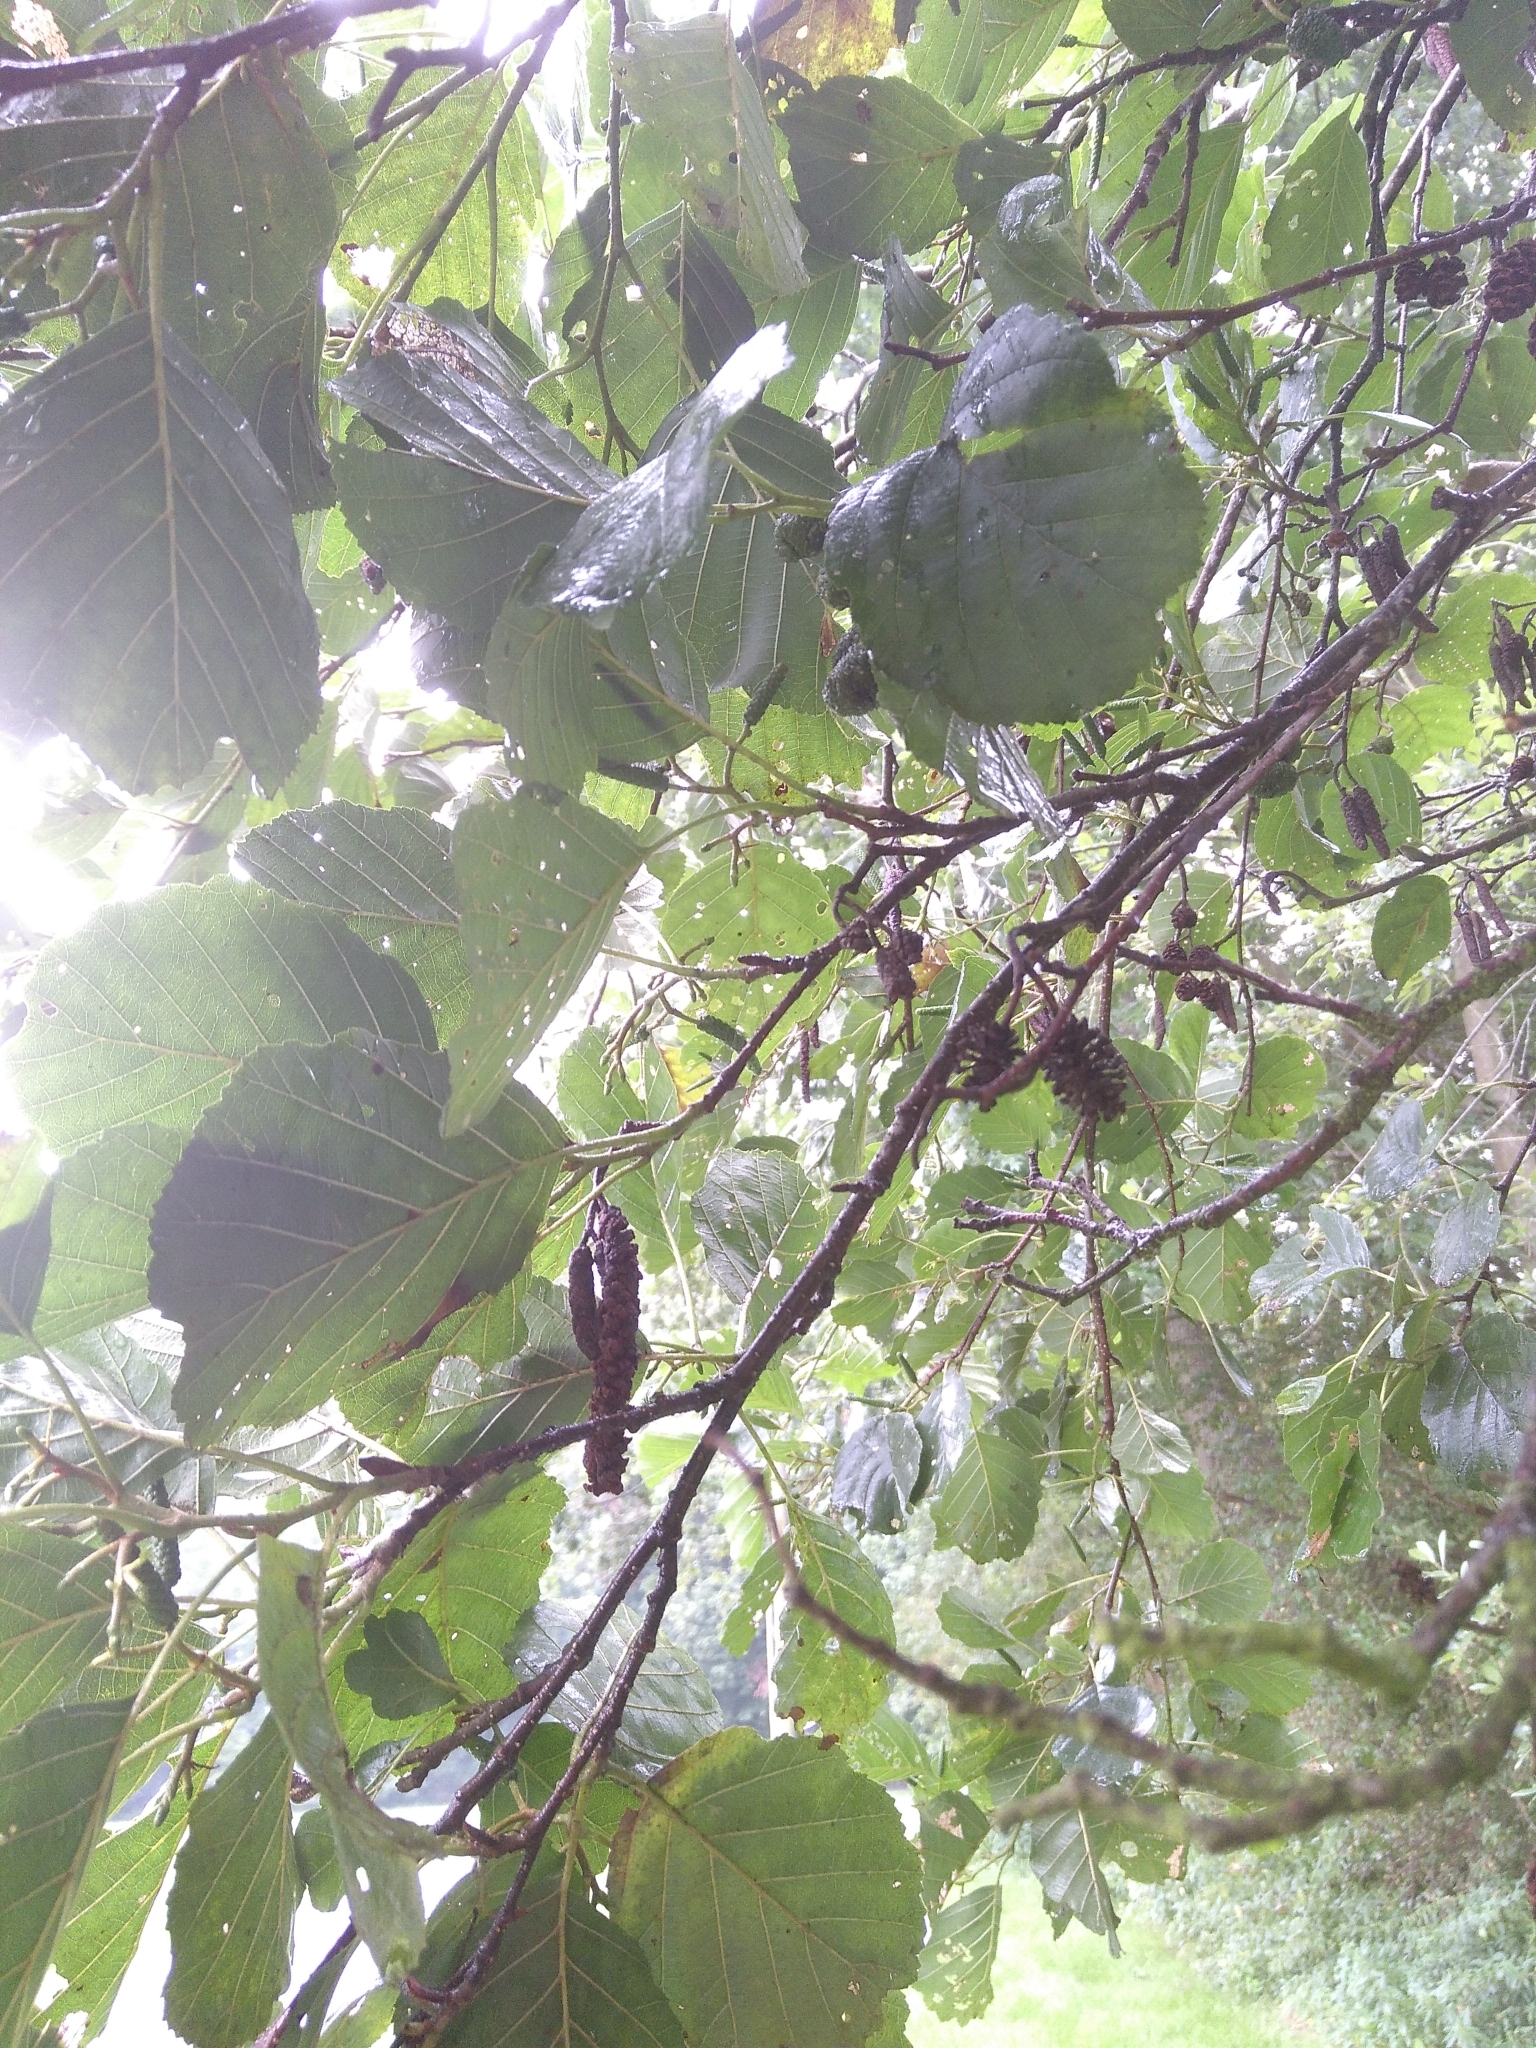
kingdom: Plantae
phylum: Tracheophyta
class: Magnoliopsida
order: Fagales
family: Betulaceae
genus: Alnus
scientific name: Alnus glutinosa
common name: Black alder
